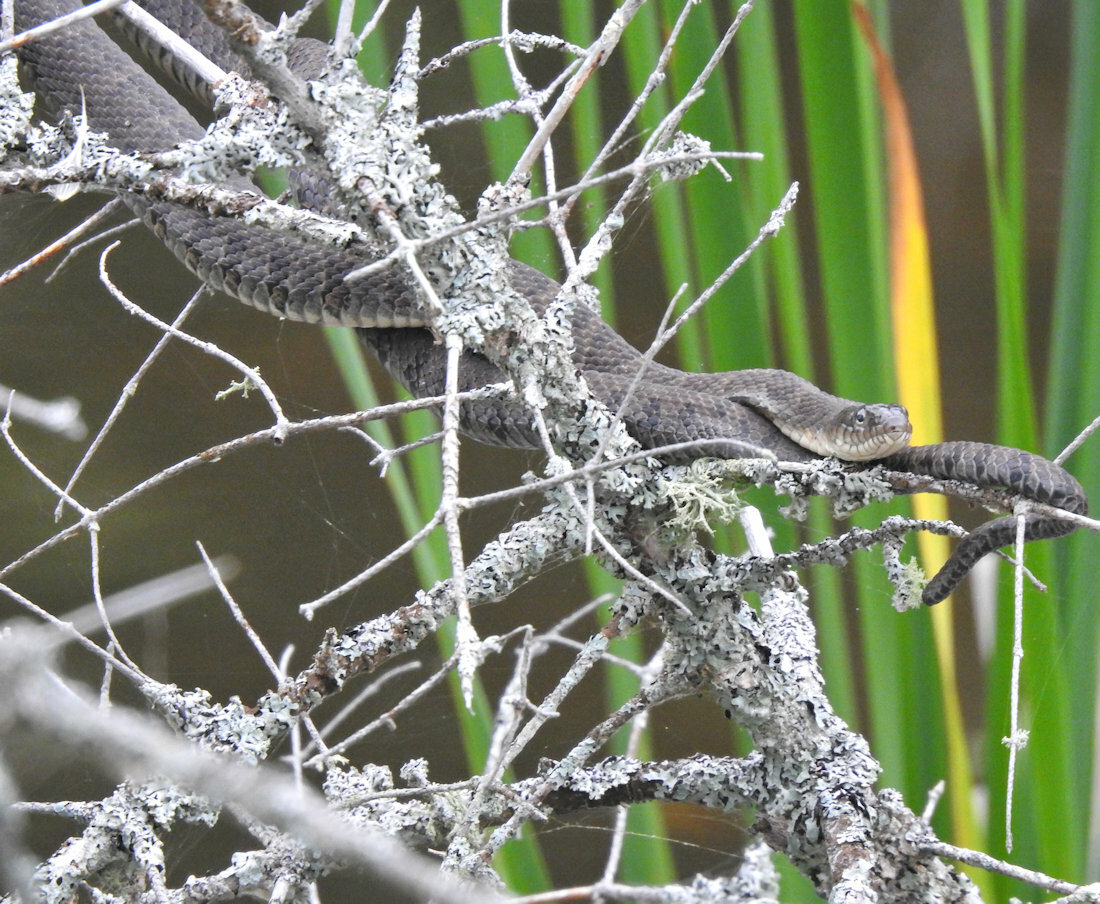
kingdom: Animalia
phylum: Chordata
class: Squamata
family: Colubridae
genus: Nerodia
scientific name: Nerodia sipedon
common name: Northern water snake
